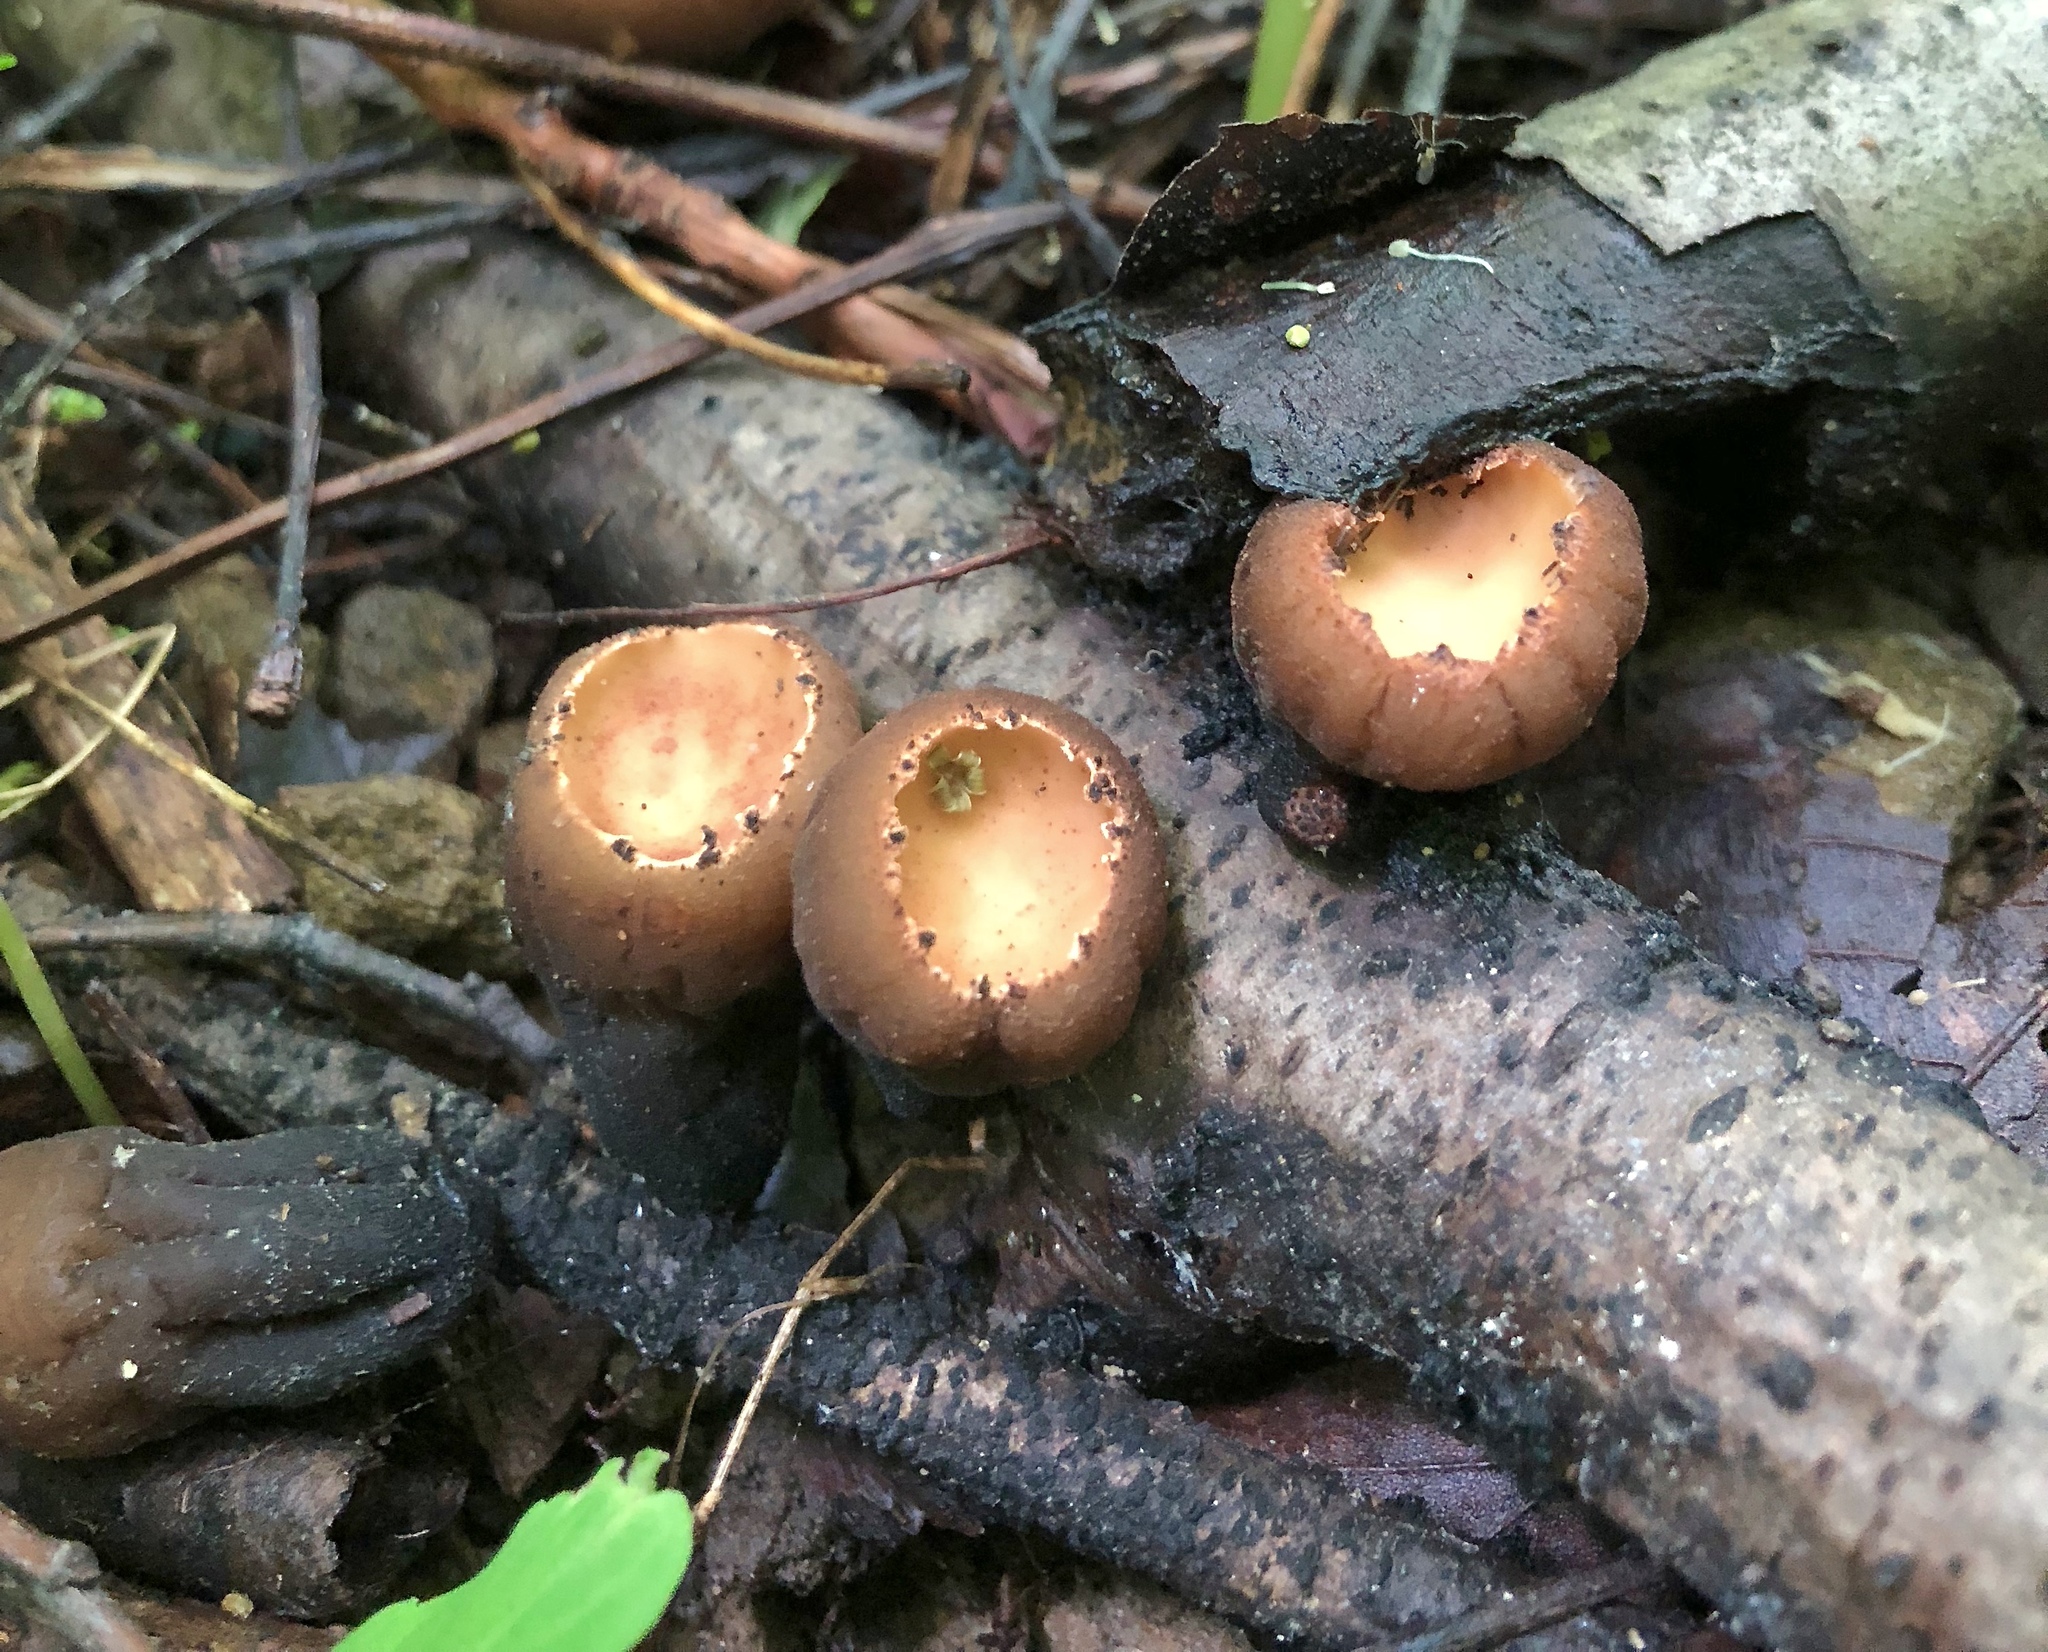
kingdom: Fungi
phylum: Ascomycota
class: Pezizomycetes
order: Pezizales
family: Sarcosomataceae
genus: Galiella
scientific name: Galiella rufa
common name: Hairy rubber cup
